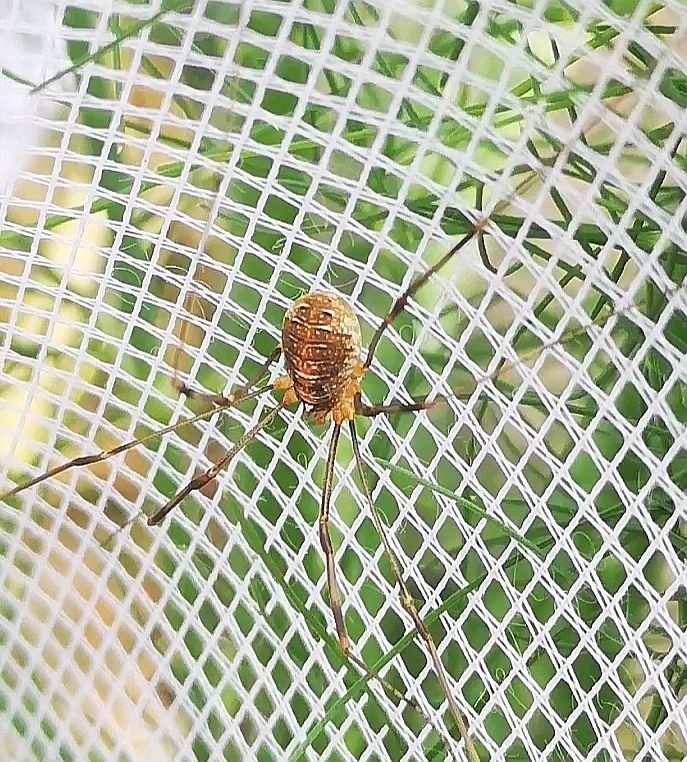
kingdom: Animalia
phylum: Arthropoda
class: Arachnida
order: Opiliones
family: Phalangiidae
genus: Opilio
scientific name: Opilio canestrinii
